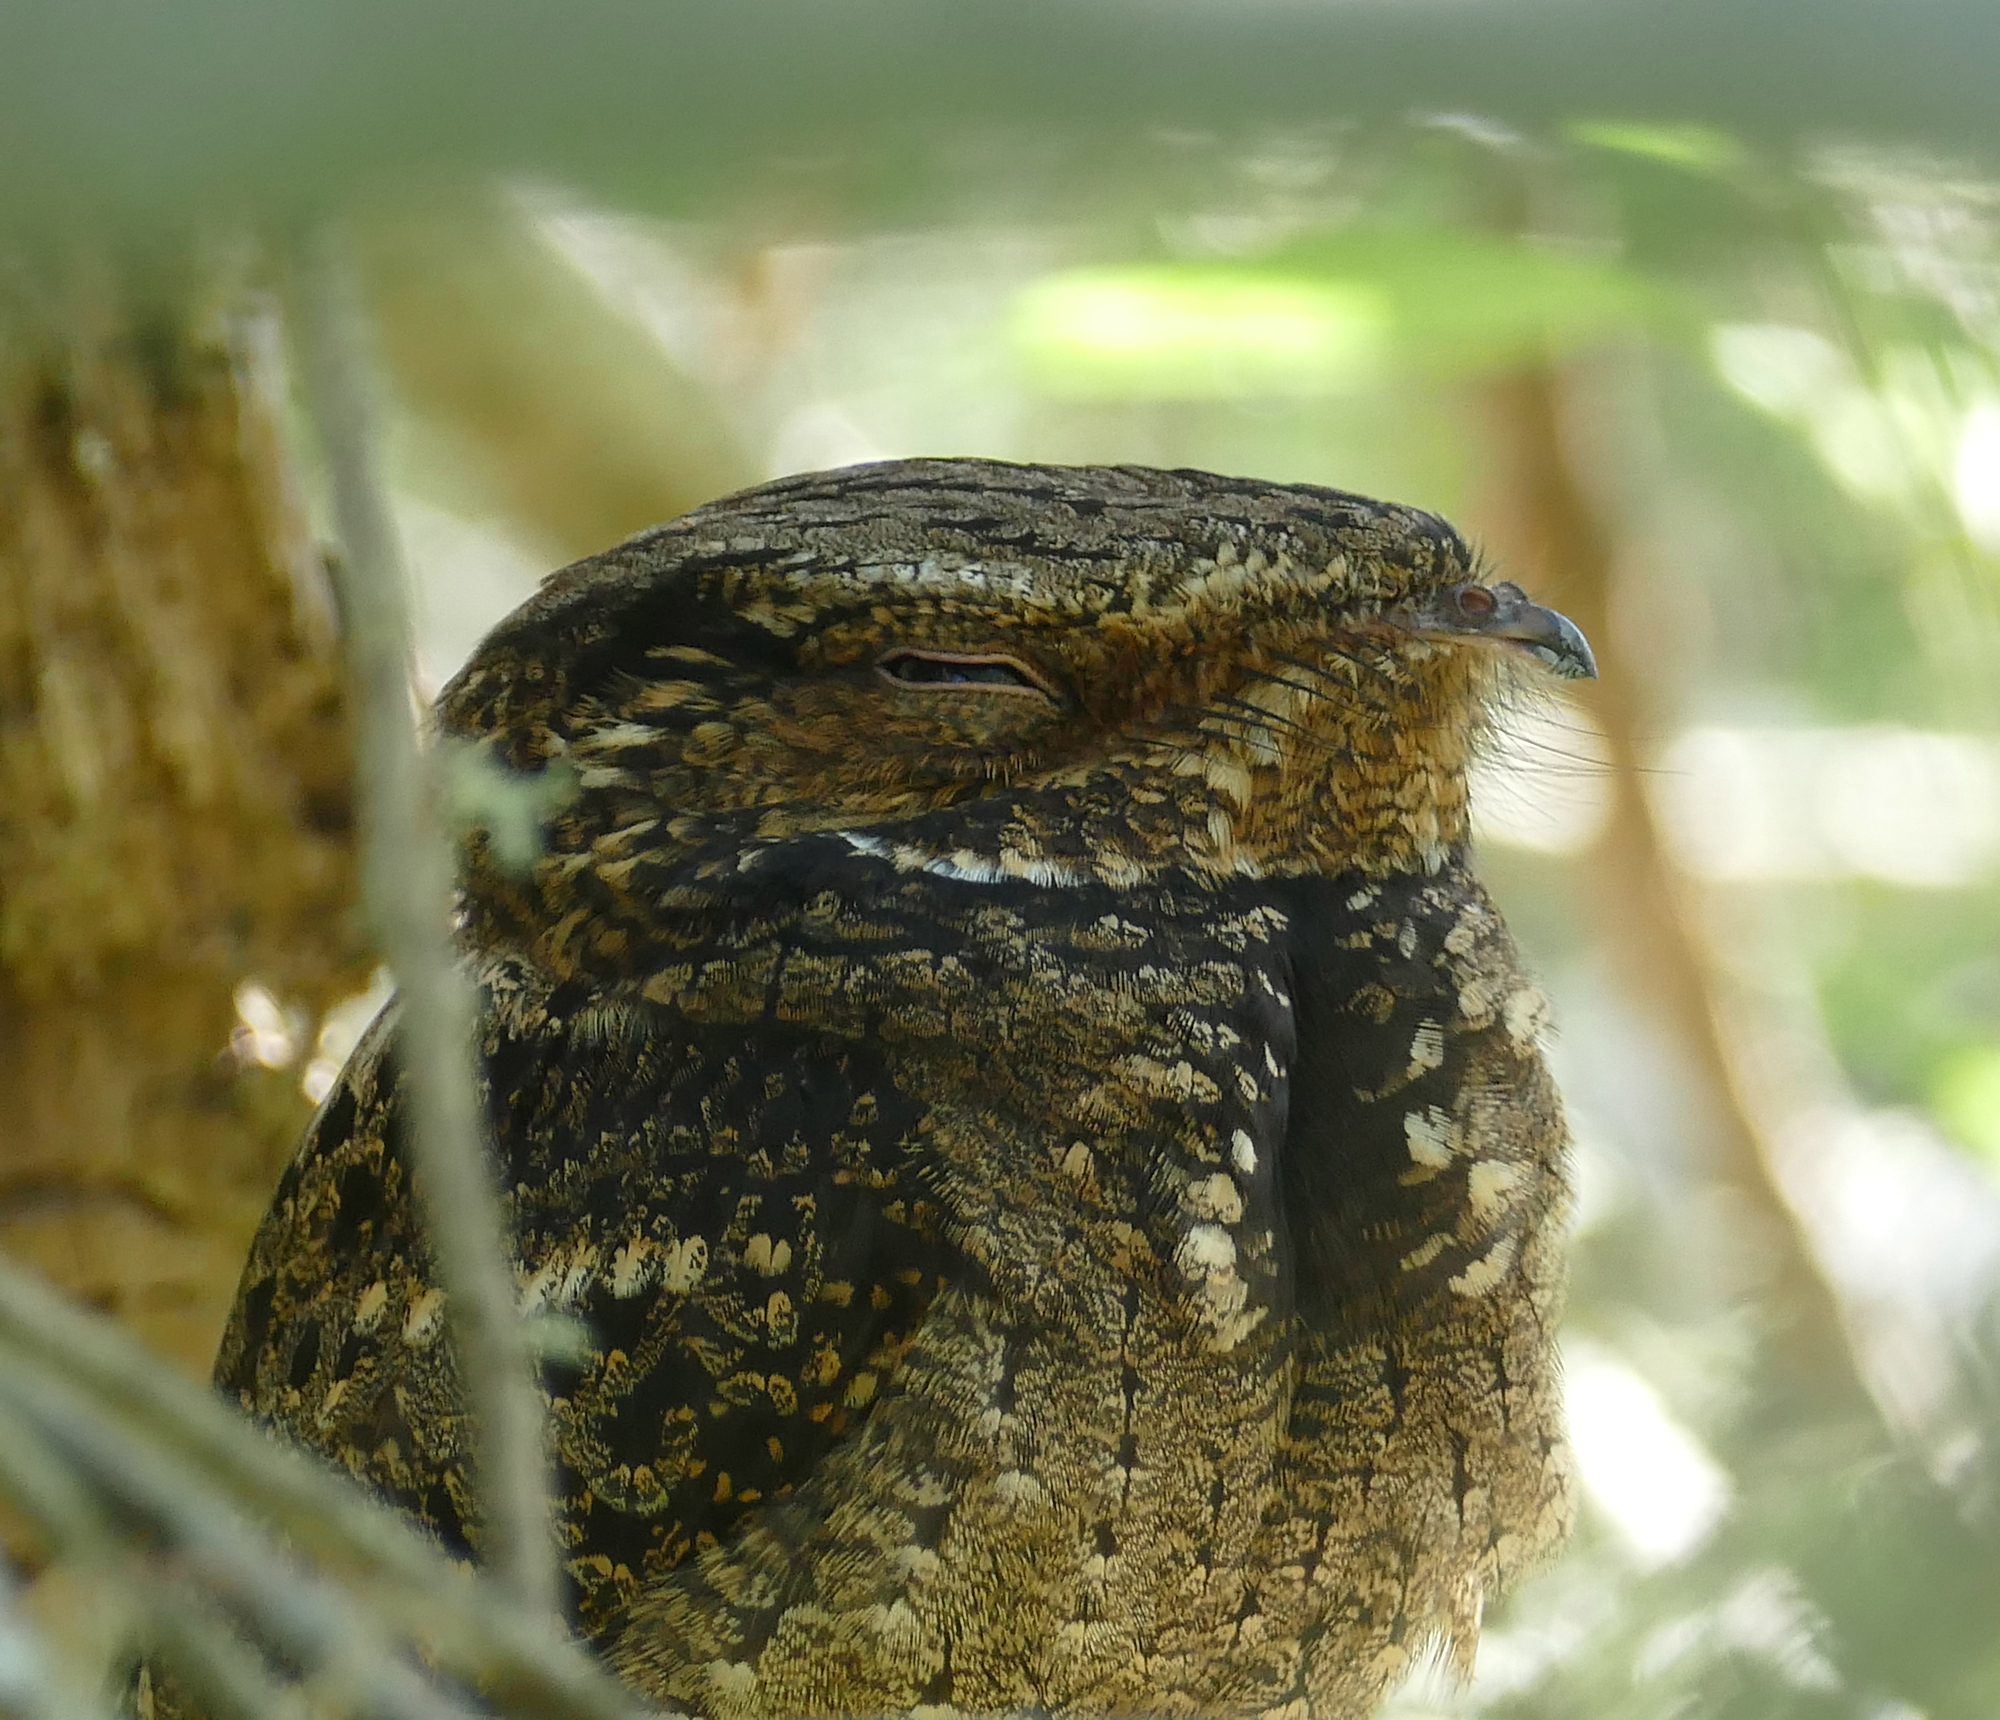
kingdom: Animalia
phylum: Chordata
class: Aves
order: Caprimulgiformes
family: Caprimulgidae
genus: Antrostomus
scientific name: Antrostomus carolinensis
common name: Chuck-will's-widow
